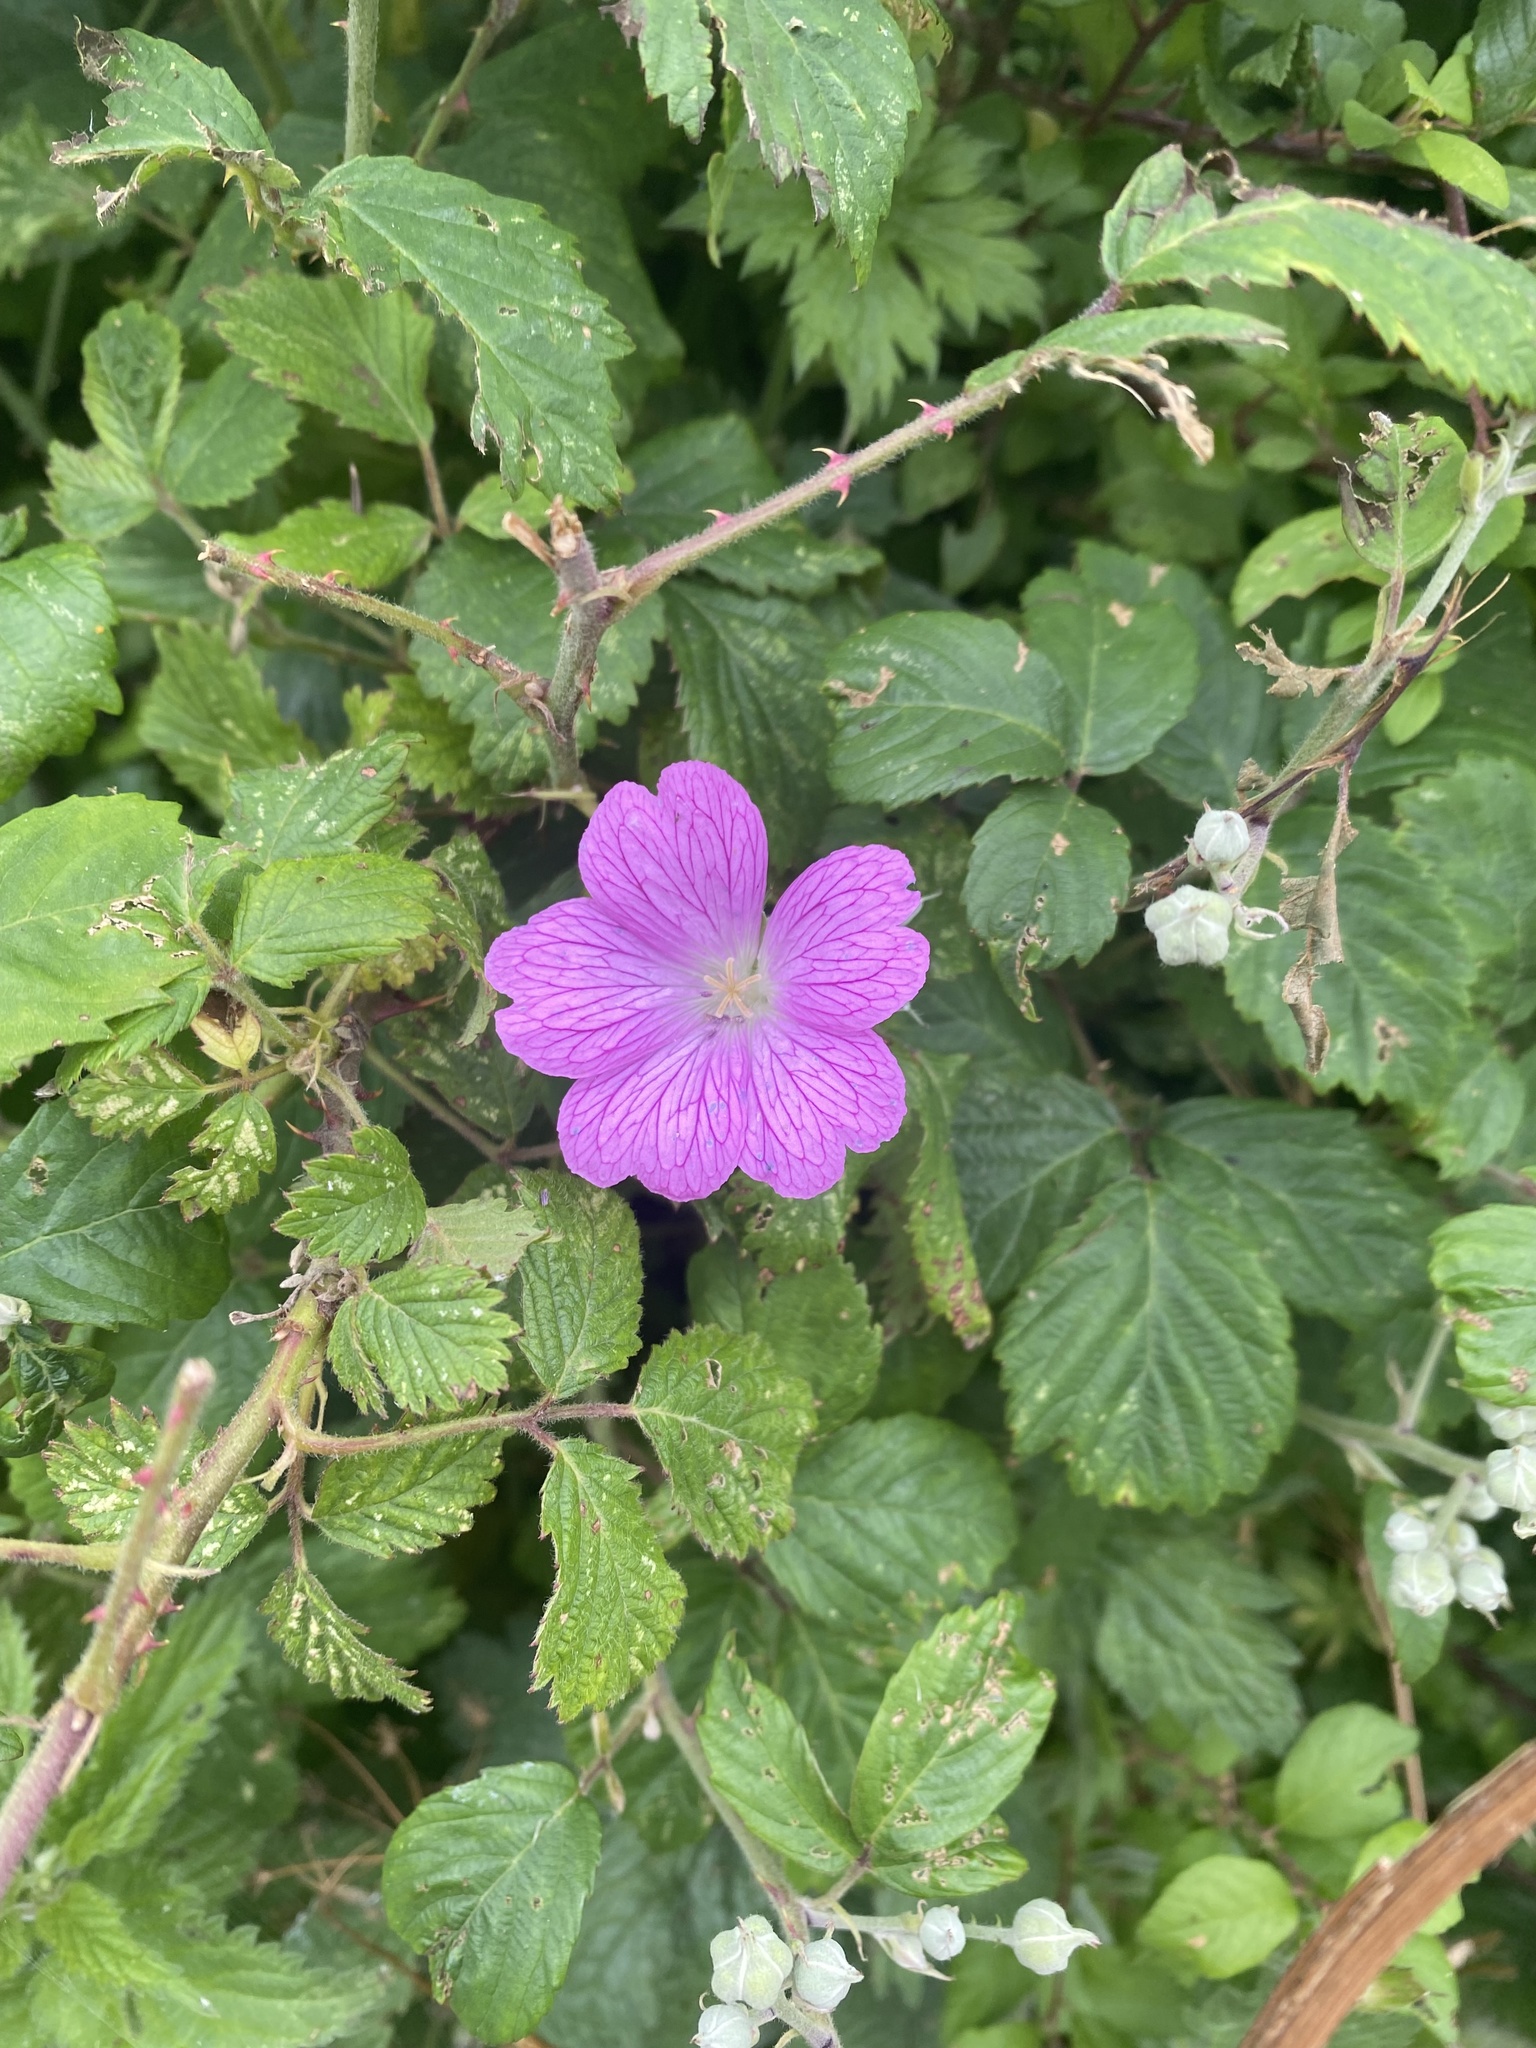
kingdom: Plantae
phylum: Tracheophyta
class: Magnoliopsida
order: Geraniales
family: Geraniaceae
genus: Geranium
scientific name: Geranium oxonianum
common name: Druce's crane's-bill
